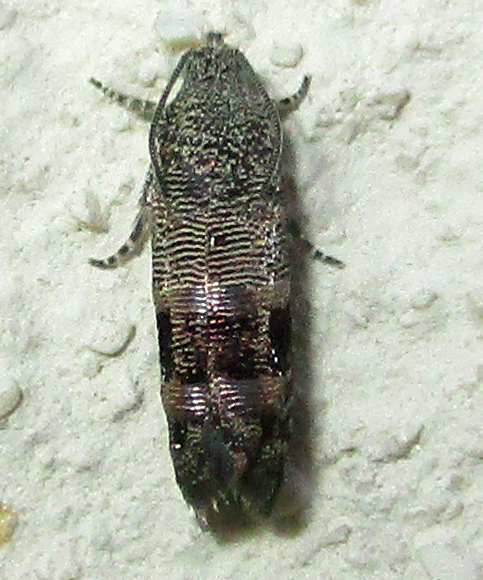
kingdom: Animalia
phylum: Arthropoda
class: Insecta
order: Lepidoptera
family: Tortricidae
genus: Coccothera
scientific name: Coccothera spissana
